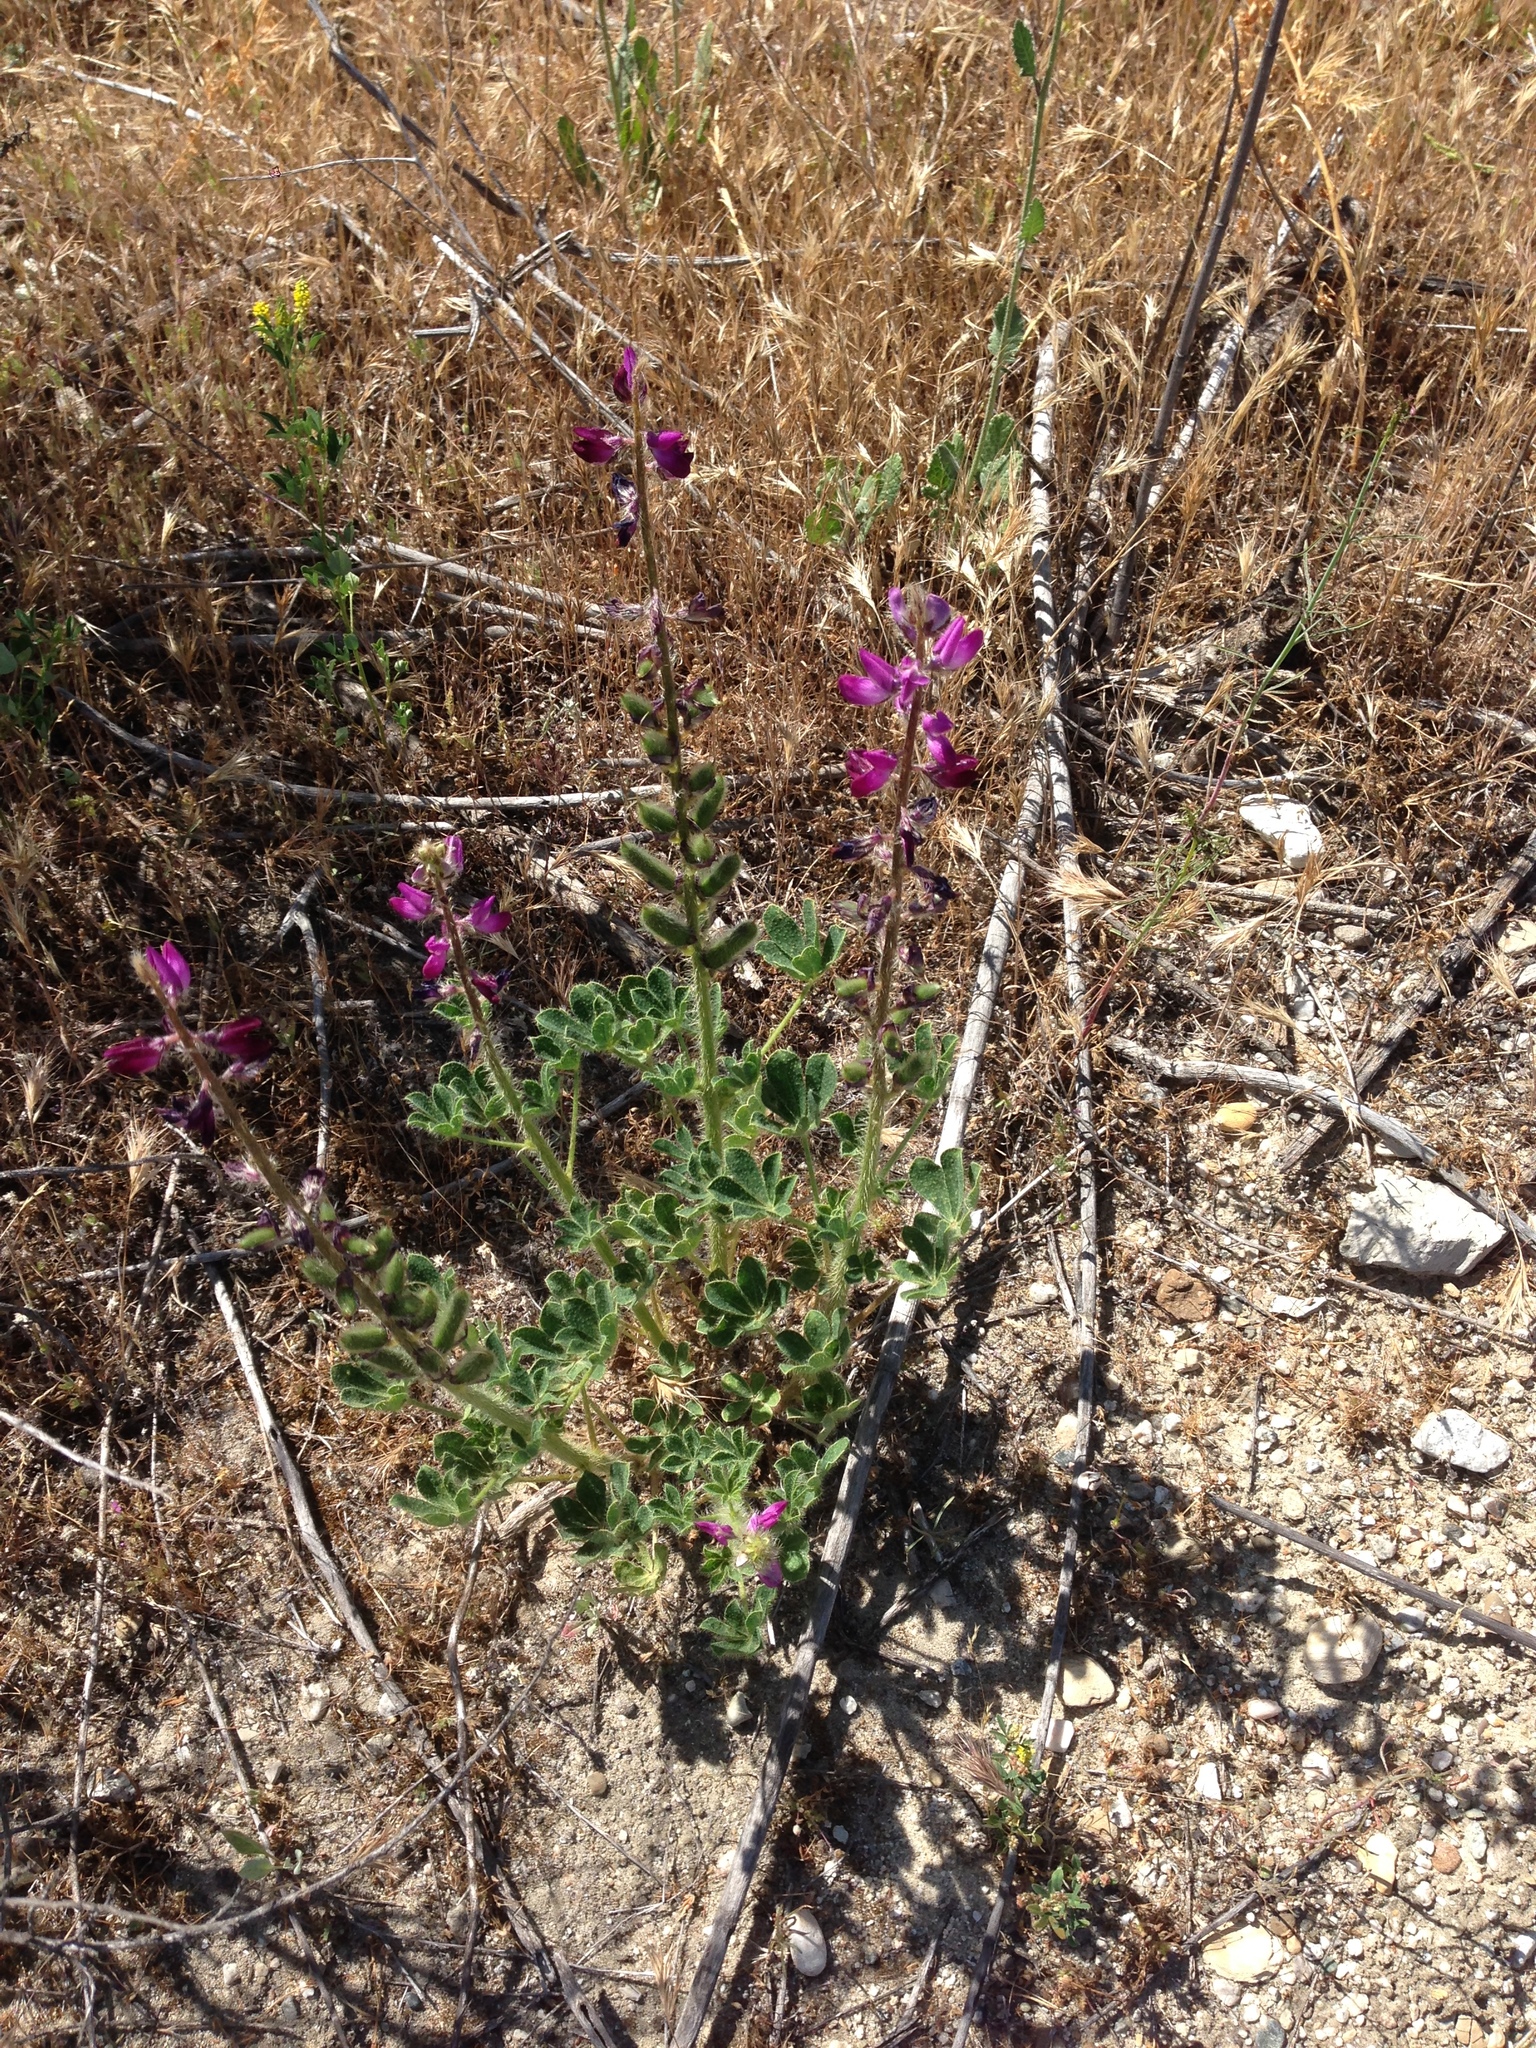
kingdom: Plantae
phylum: Tracheophyta
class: Magnoliopsida
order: Fabales
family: Fabaceae
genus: Lupinus
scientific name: Lupinus hirsutissimus
